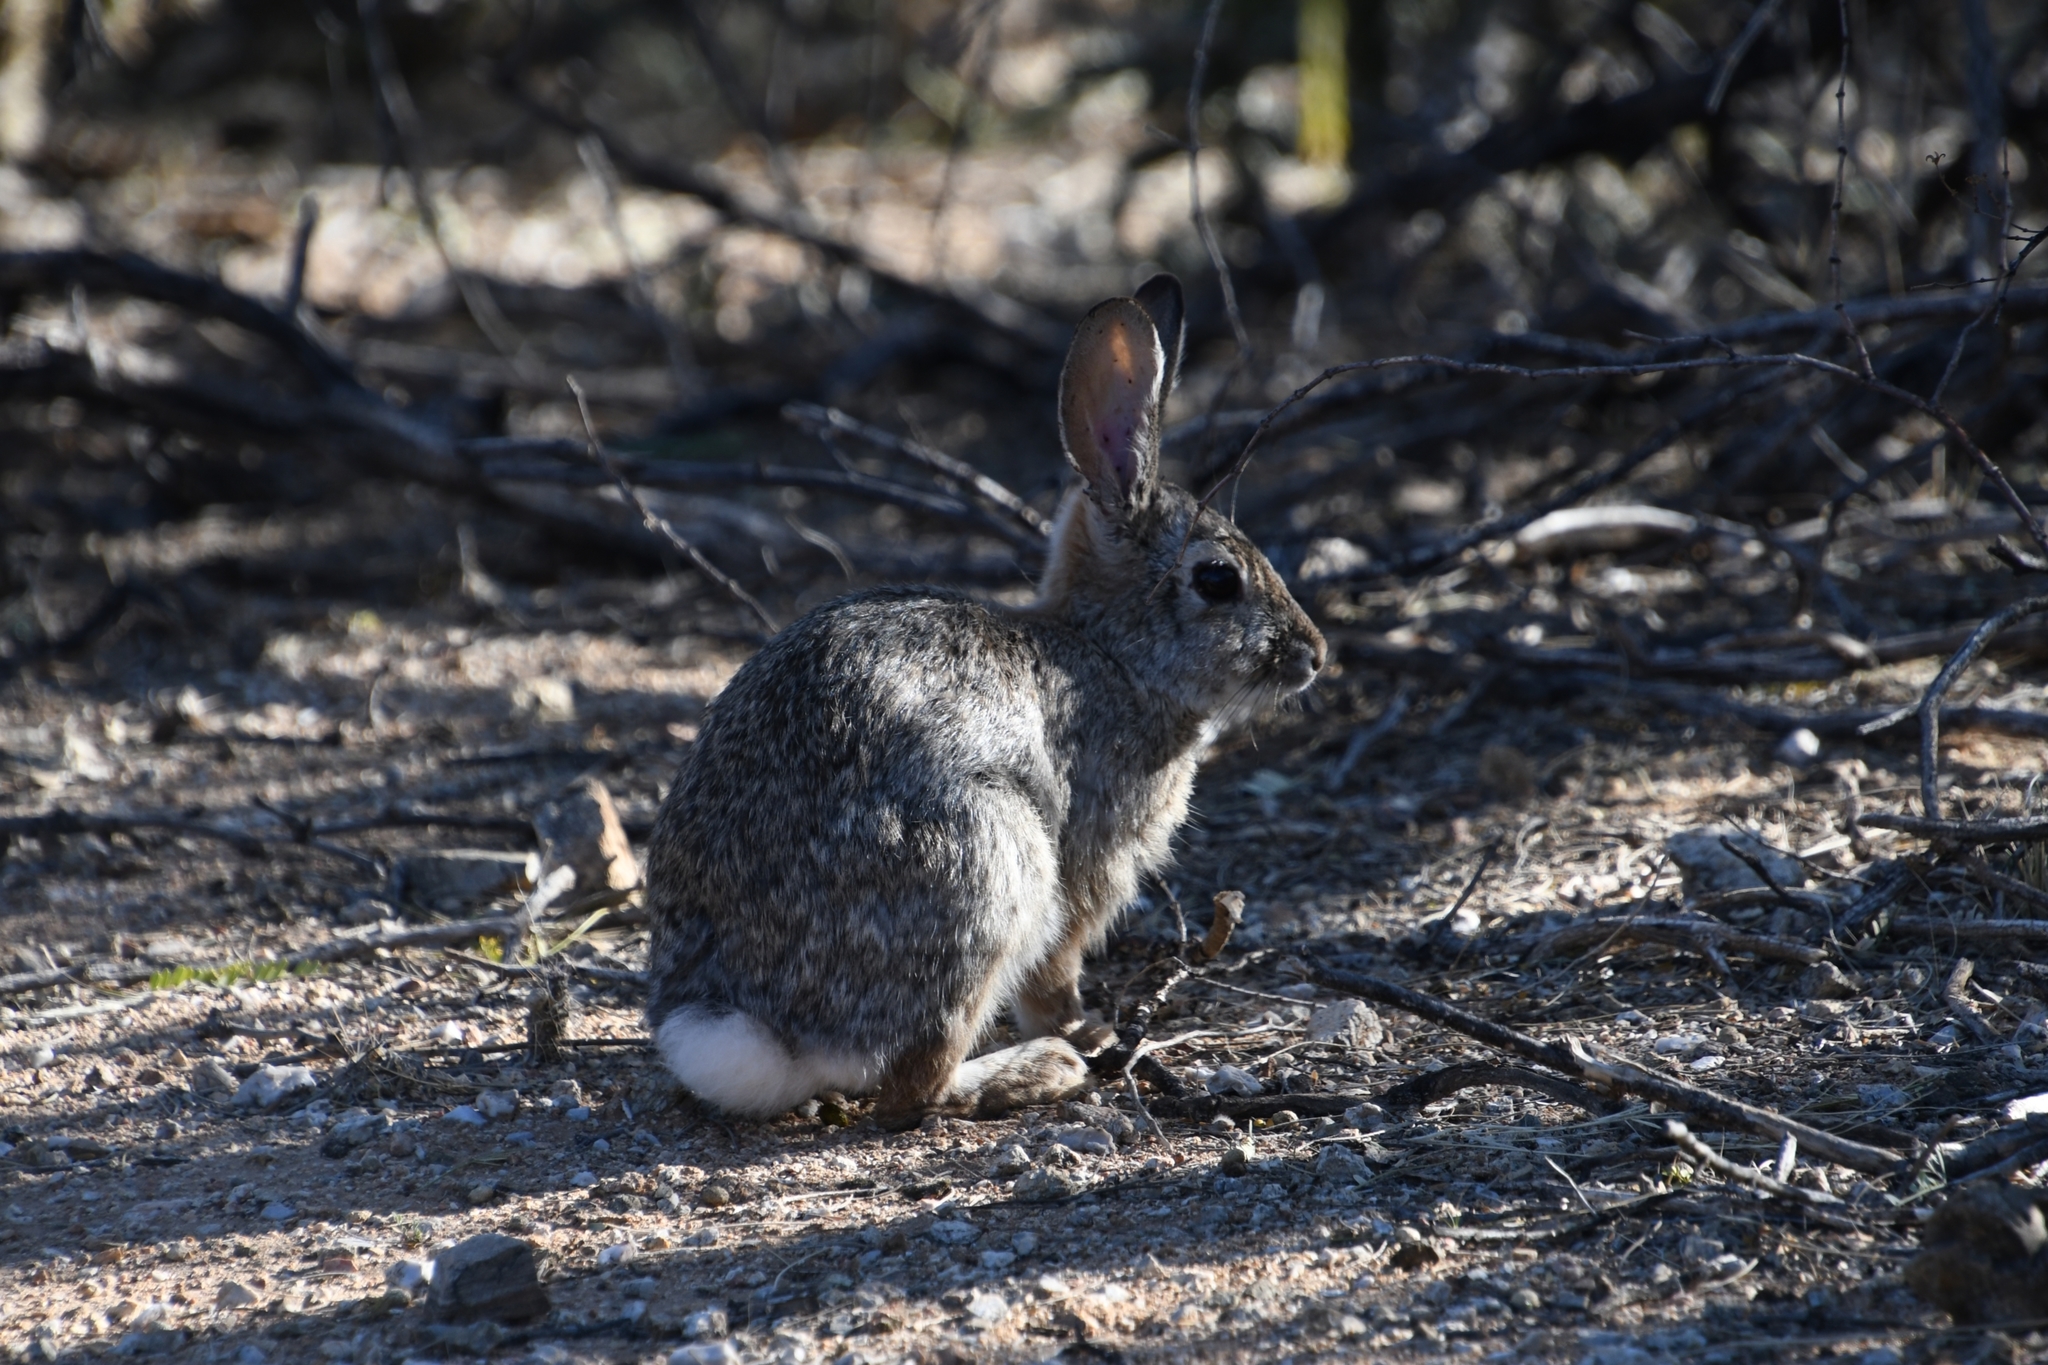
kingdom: Animalia
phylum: Chordata
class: Mammalia
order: Lagomorpha
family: Leporidae
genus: Sylvilagus
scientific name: Sylvilagus audubonii
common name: Desert cottontail
